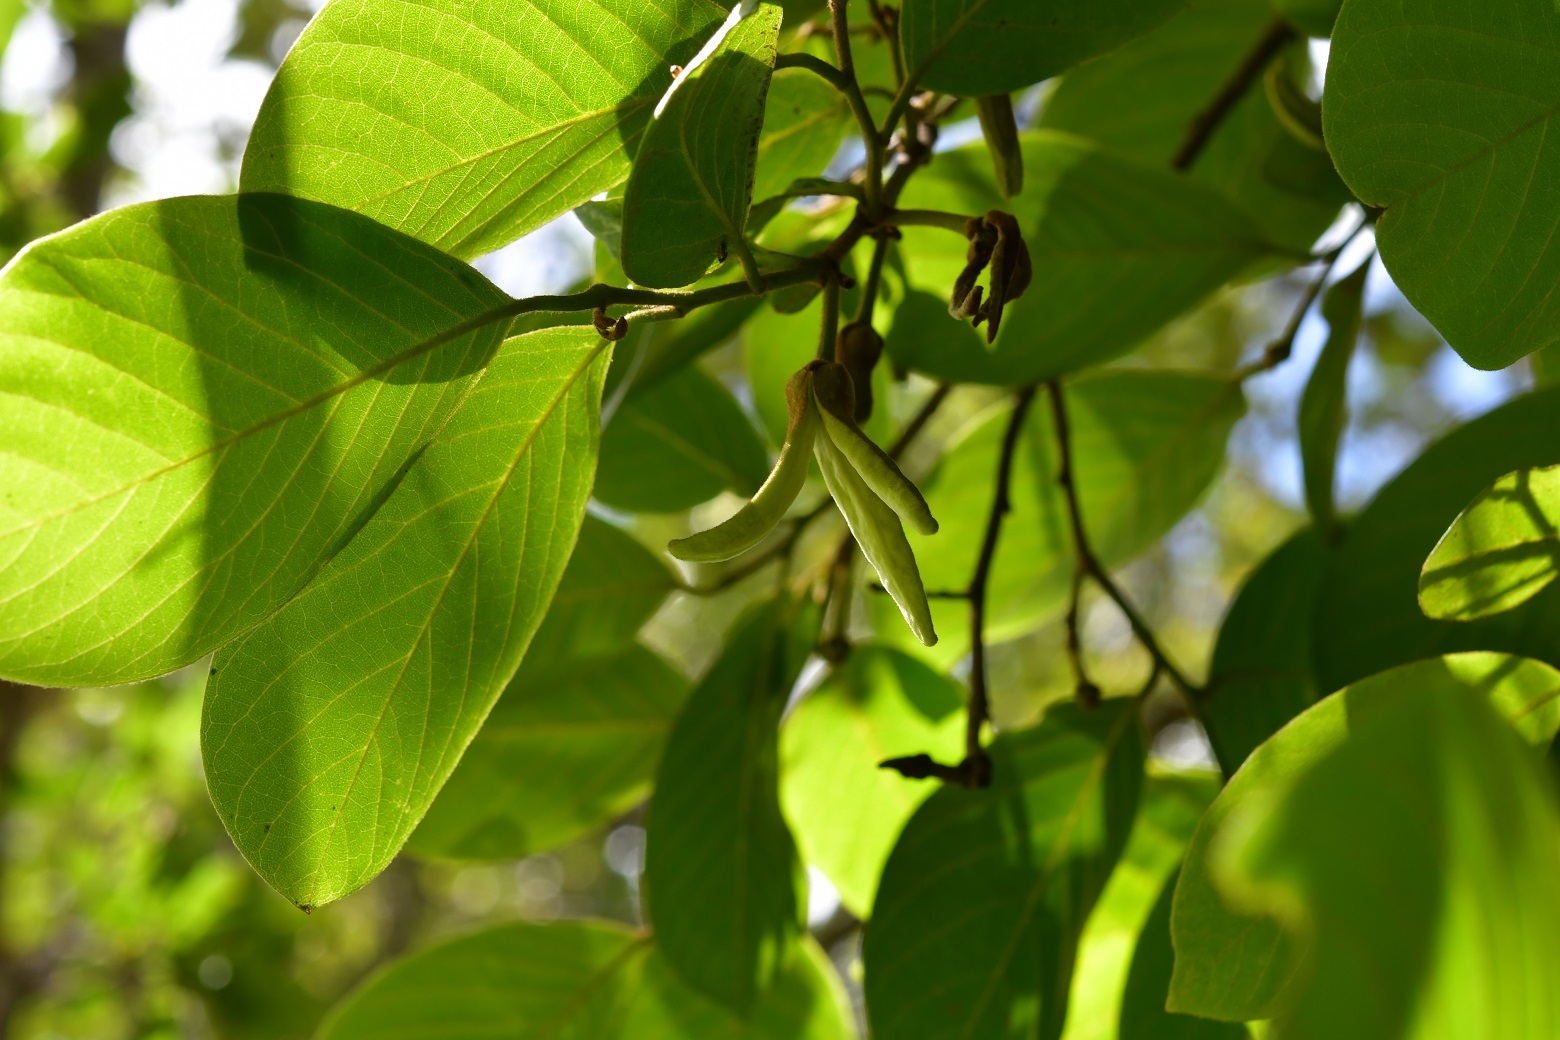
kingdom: Plantae
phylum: Tracheophyta
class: Magnoliopsida
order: Magnoliales
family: Annonaceae
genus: Annona
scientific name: Annona cherimola
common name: Cherimoya
